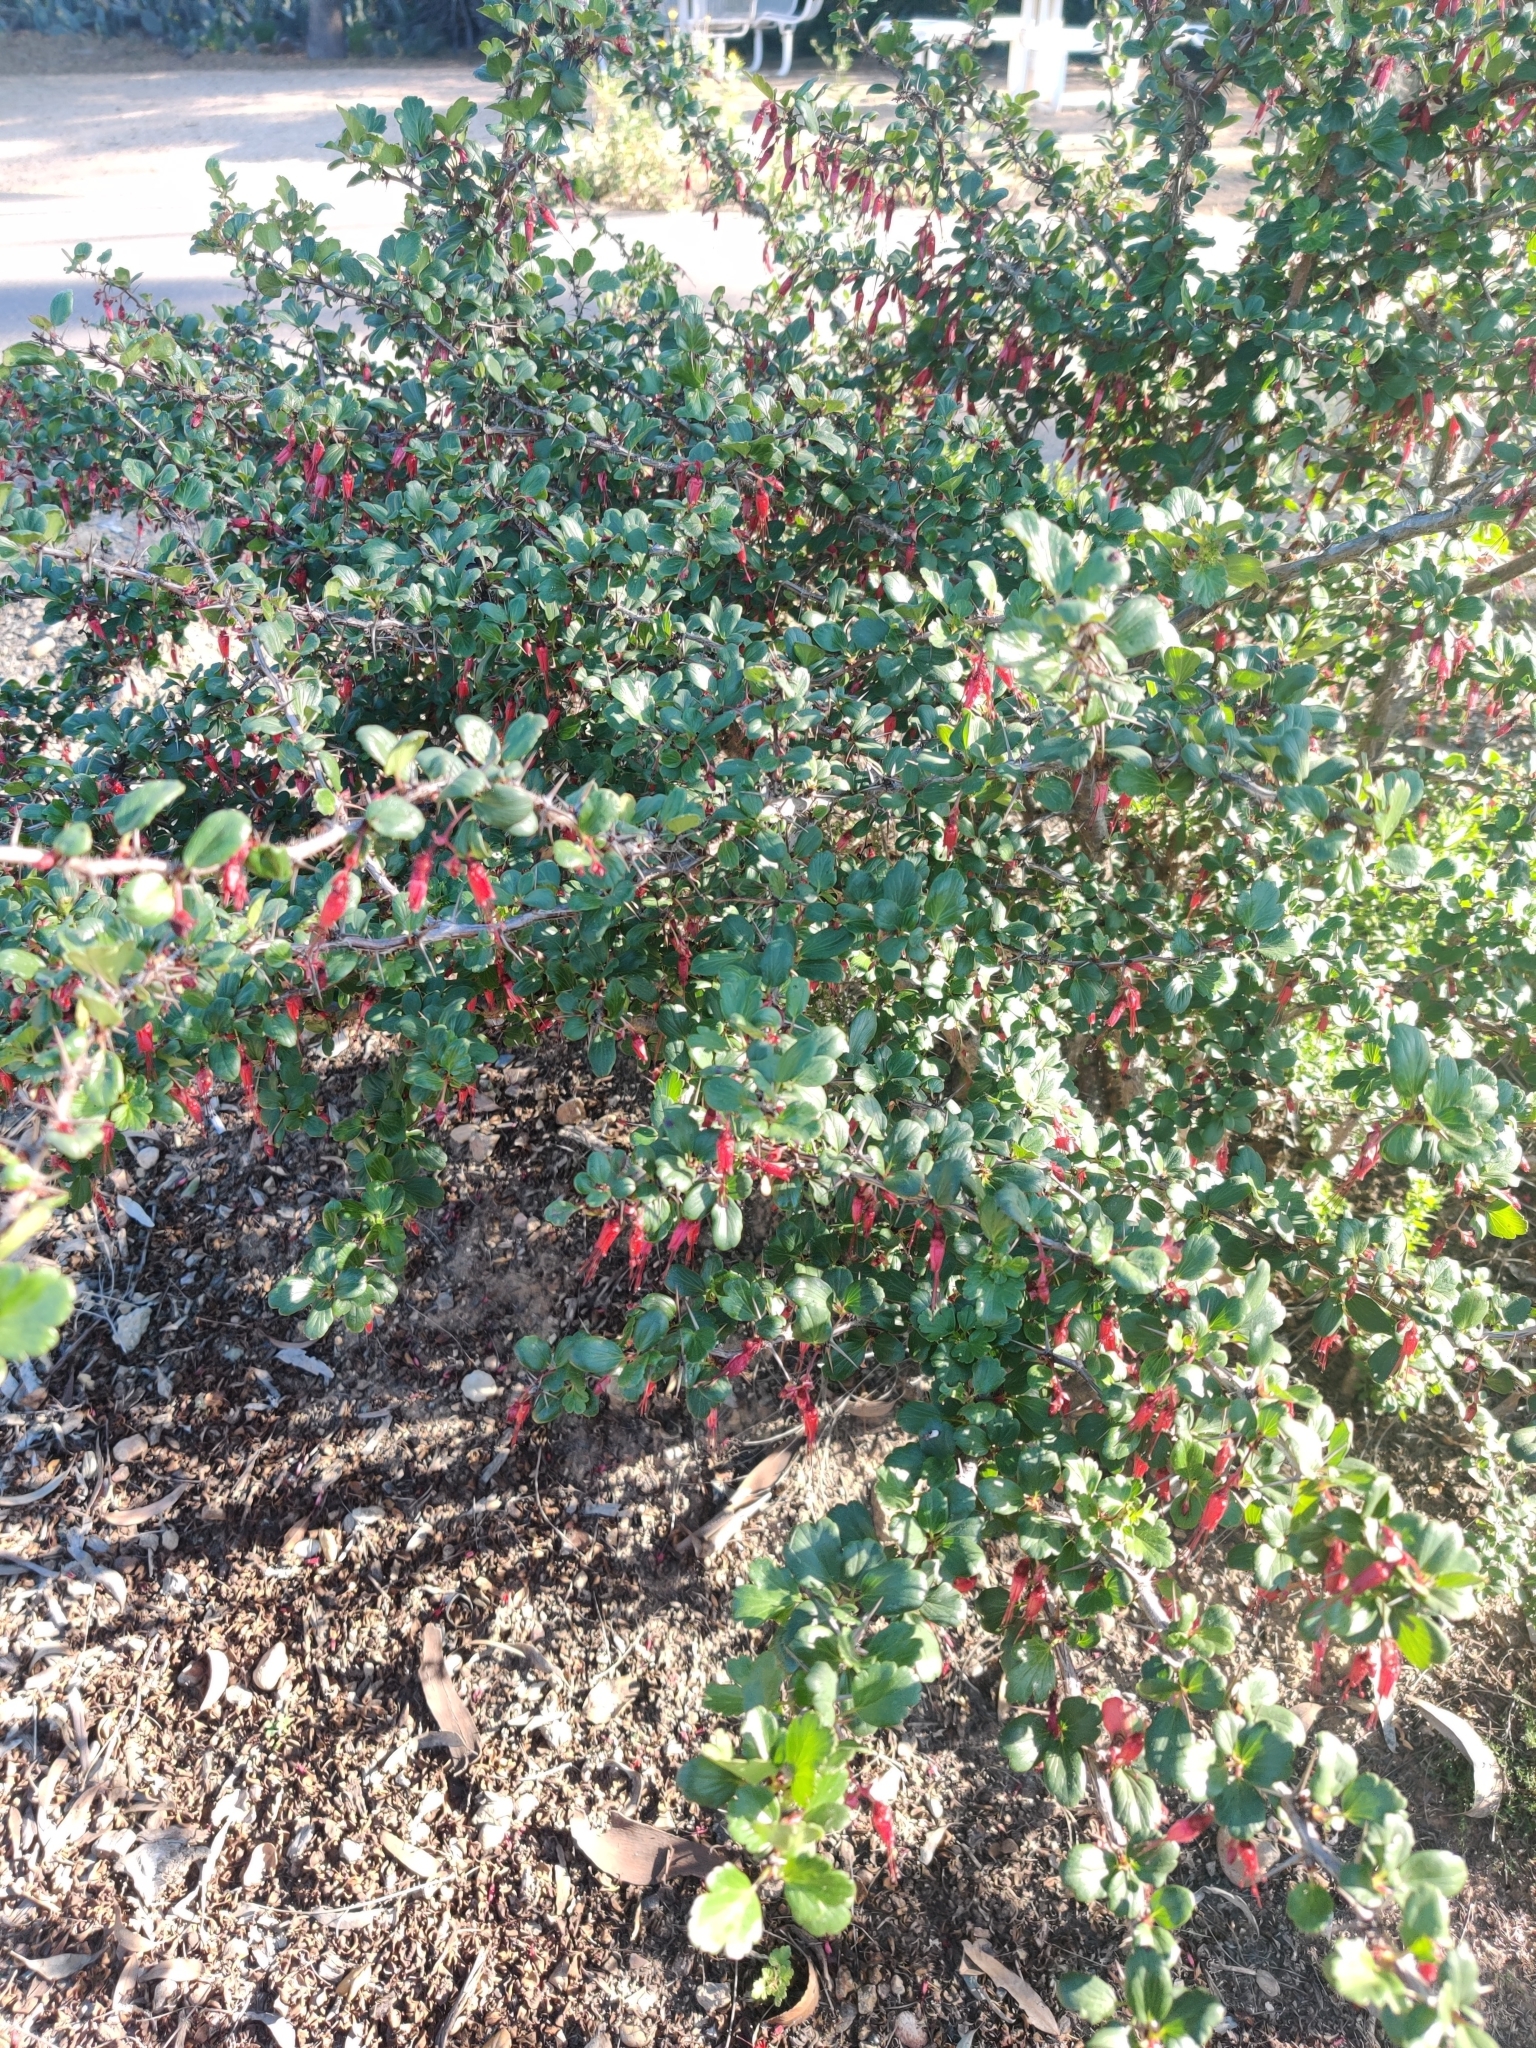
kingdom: Plantae
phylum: Tracheophyta
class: Magnoliopsida
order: Saxifragales
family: Grossulariaceae
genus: Ribes
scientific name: Ribes speciosum
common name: Fuchsia-flower gooseberry
